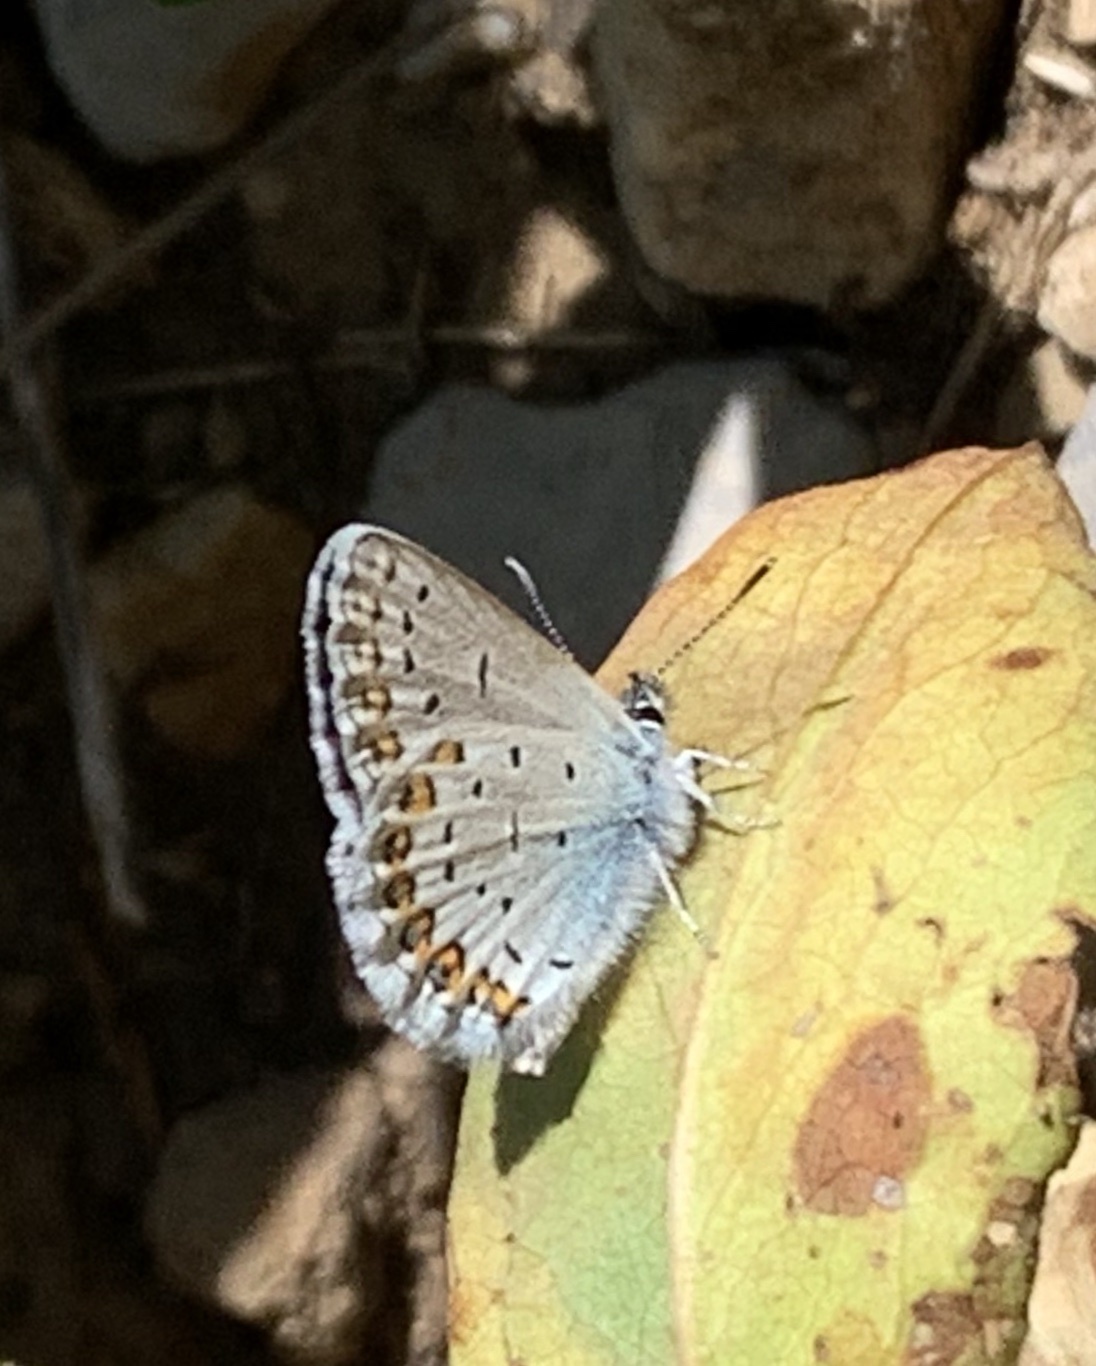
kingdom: Animalia
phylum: Arthropoda
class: Insecta
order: Lepidoptera
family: Lycaenidae
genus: Lycaeides
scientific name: Lycaeides idas
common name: Northern blue
